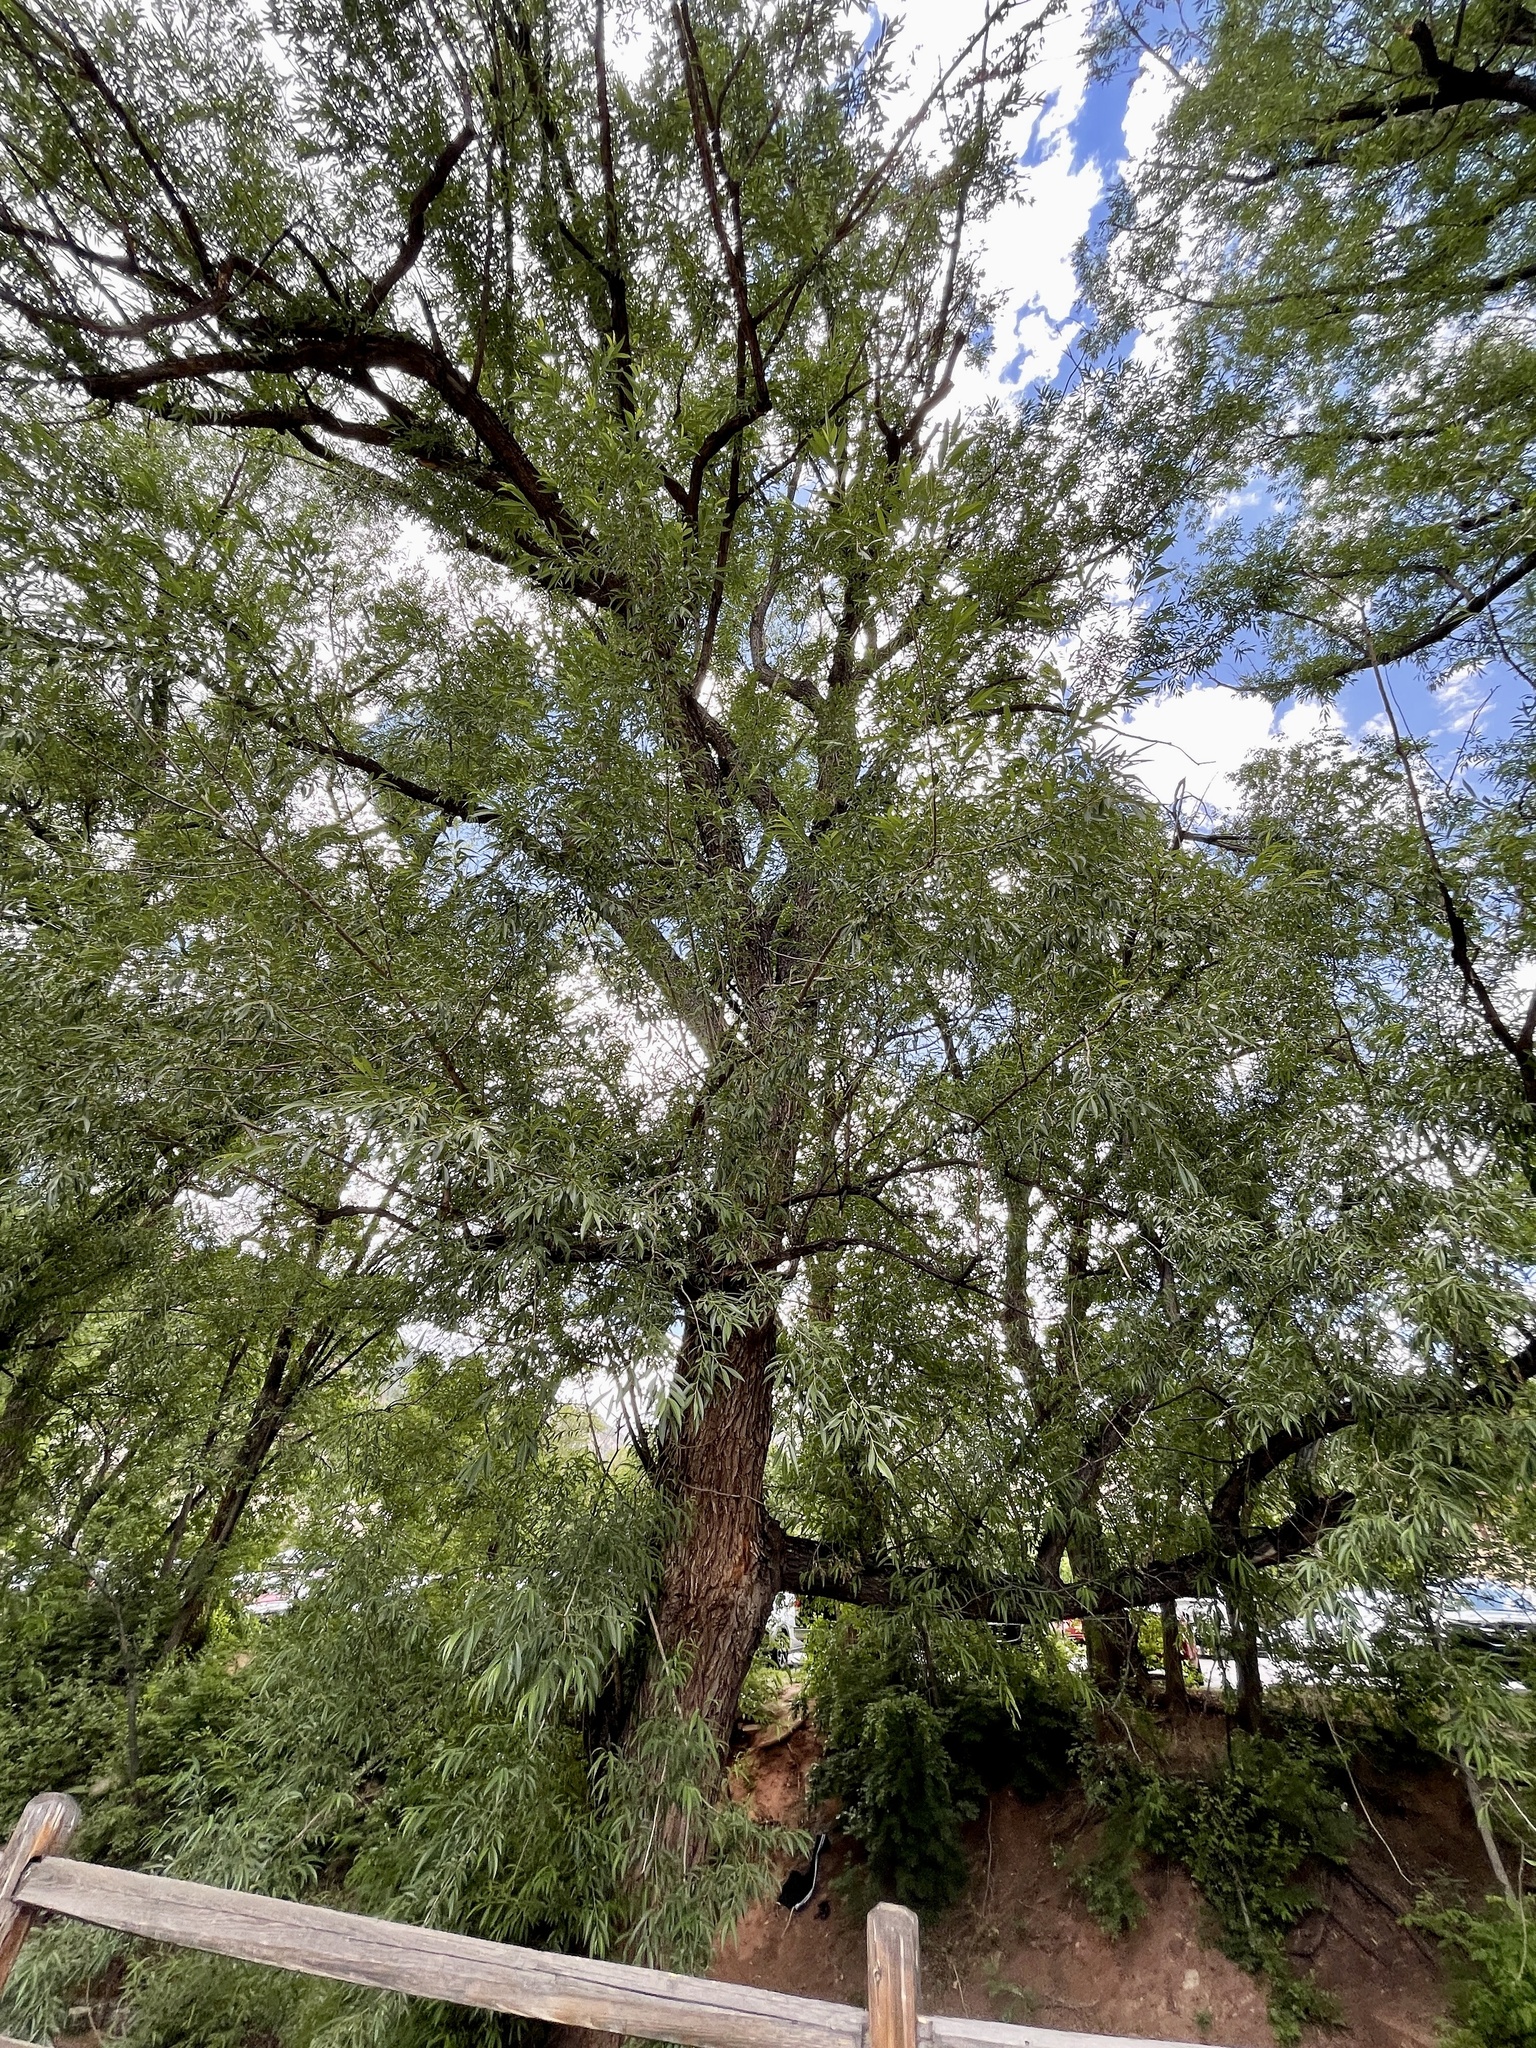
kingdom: Plantae
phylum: Tracheophyta
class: Magnoliopsida
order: Malpighiales
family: Salicaceae
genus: Salix
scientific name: Salix fragilis
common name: Crack willow
